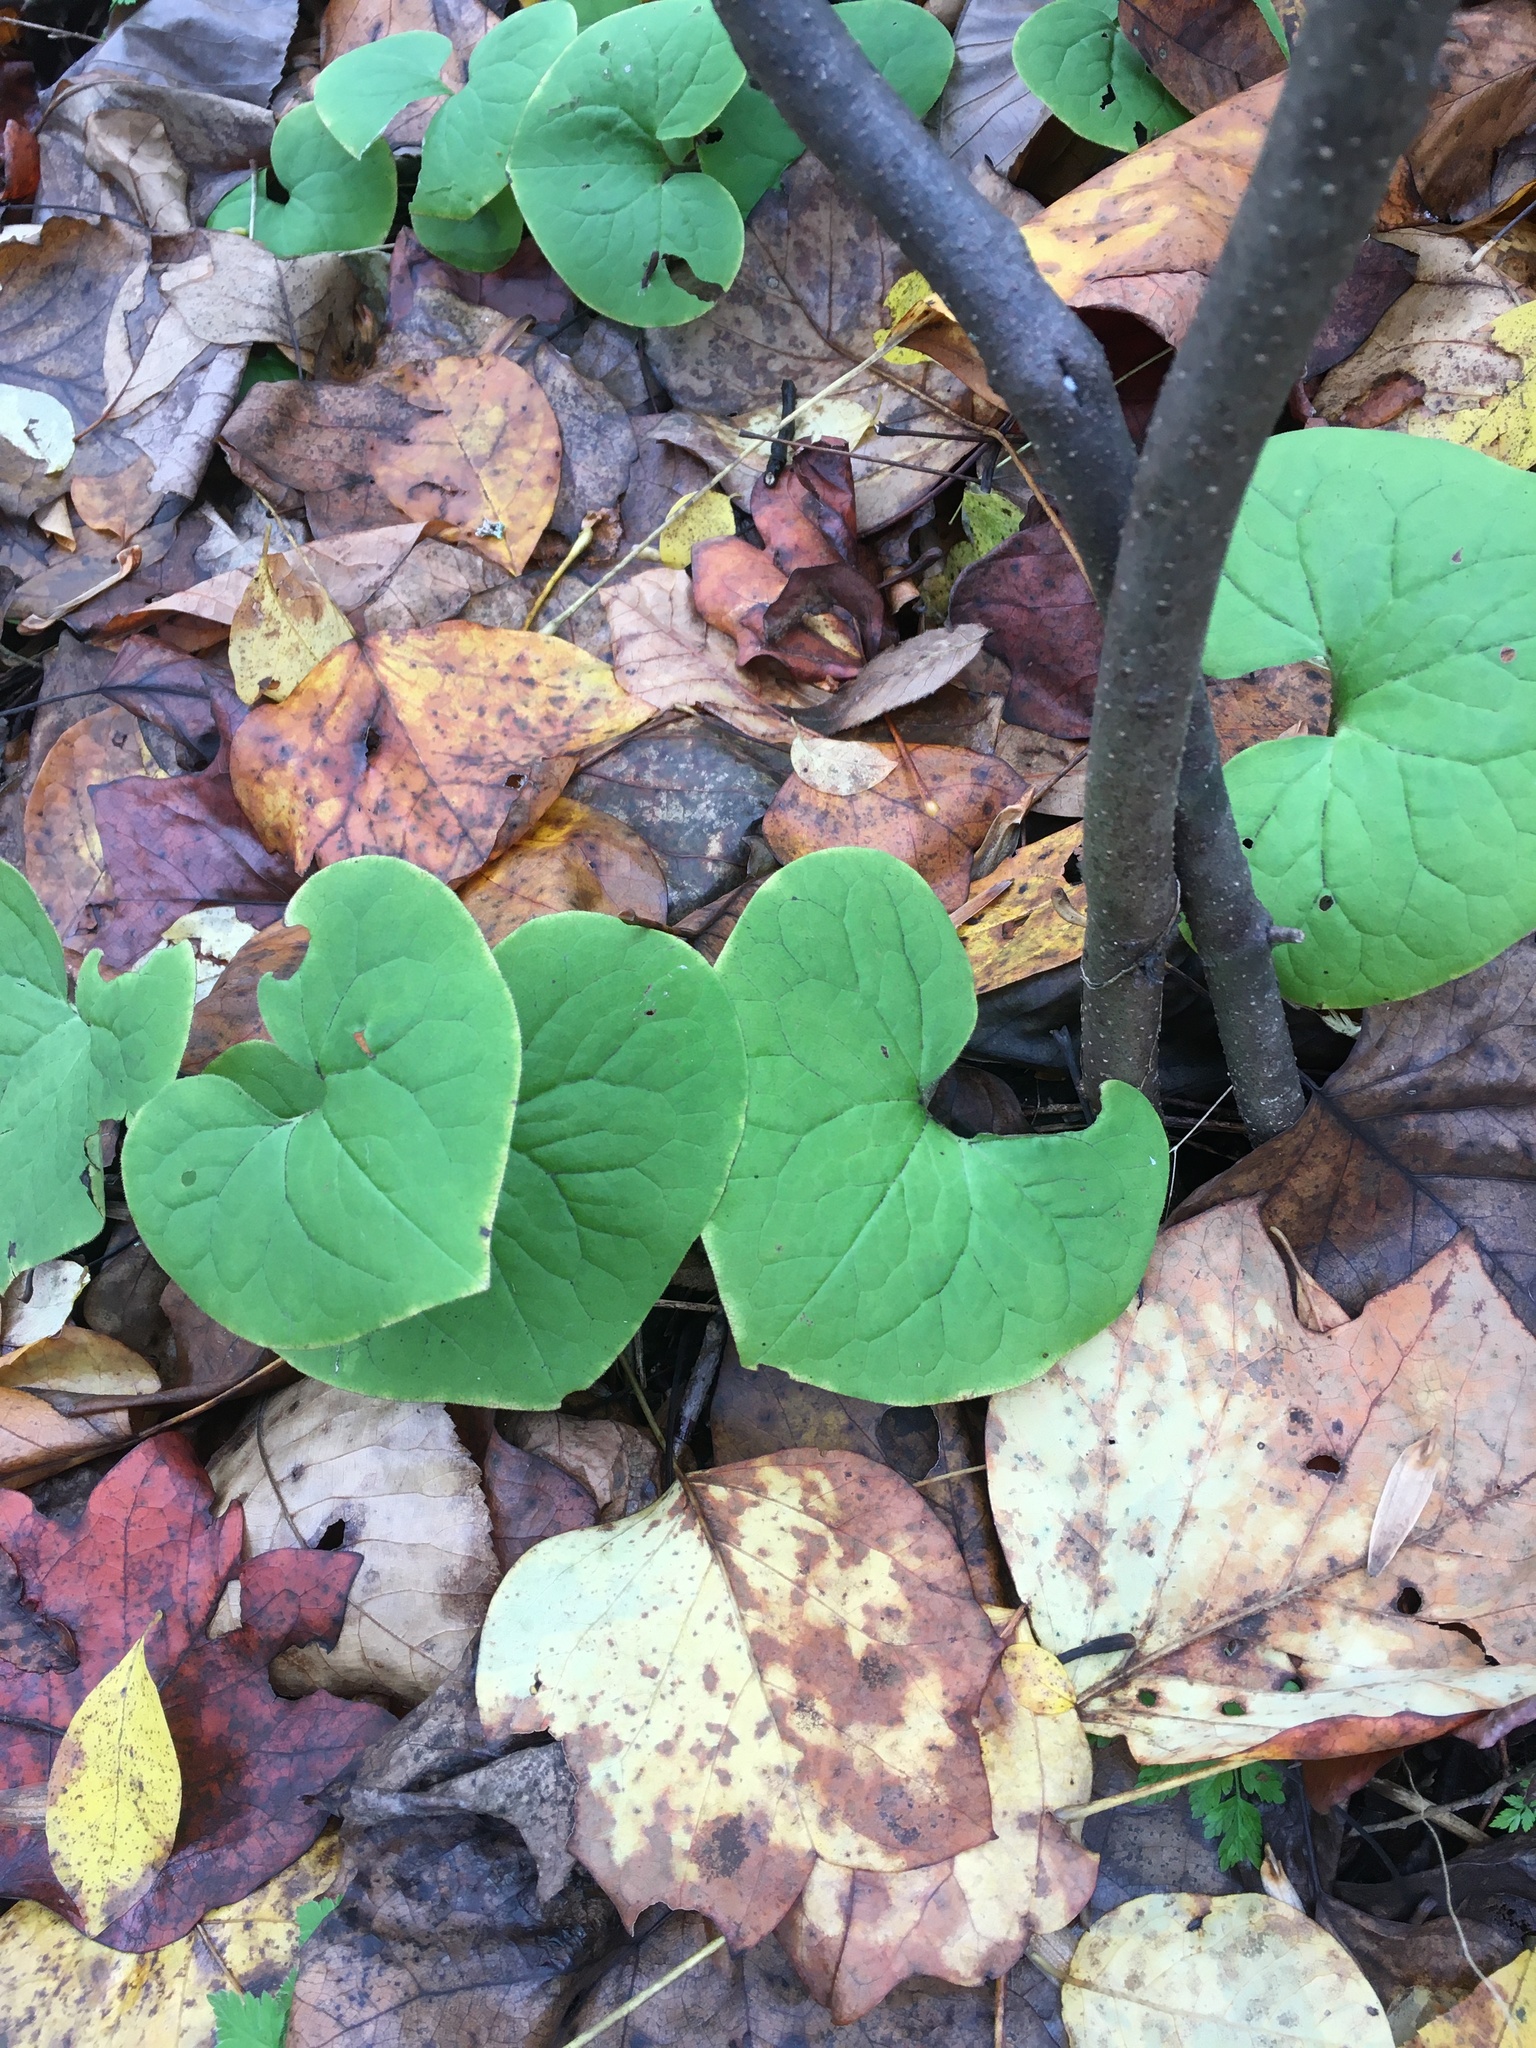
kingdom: Plantae
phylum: Tracheophyta
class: Magnoliopsida
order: Piperales
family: Aristolochiaceae
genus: Asarum
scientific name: Asarum canadense
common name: Wild ginger
